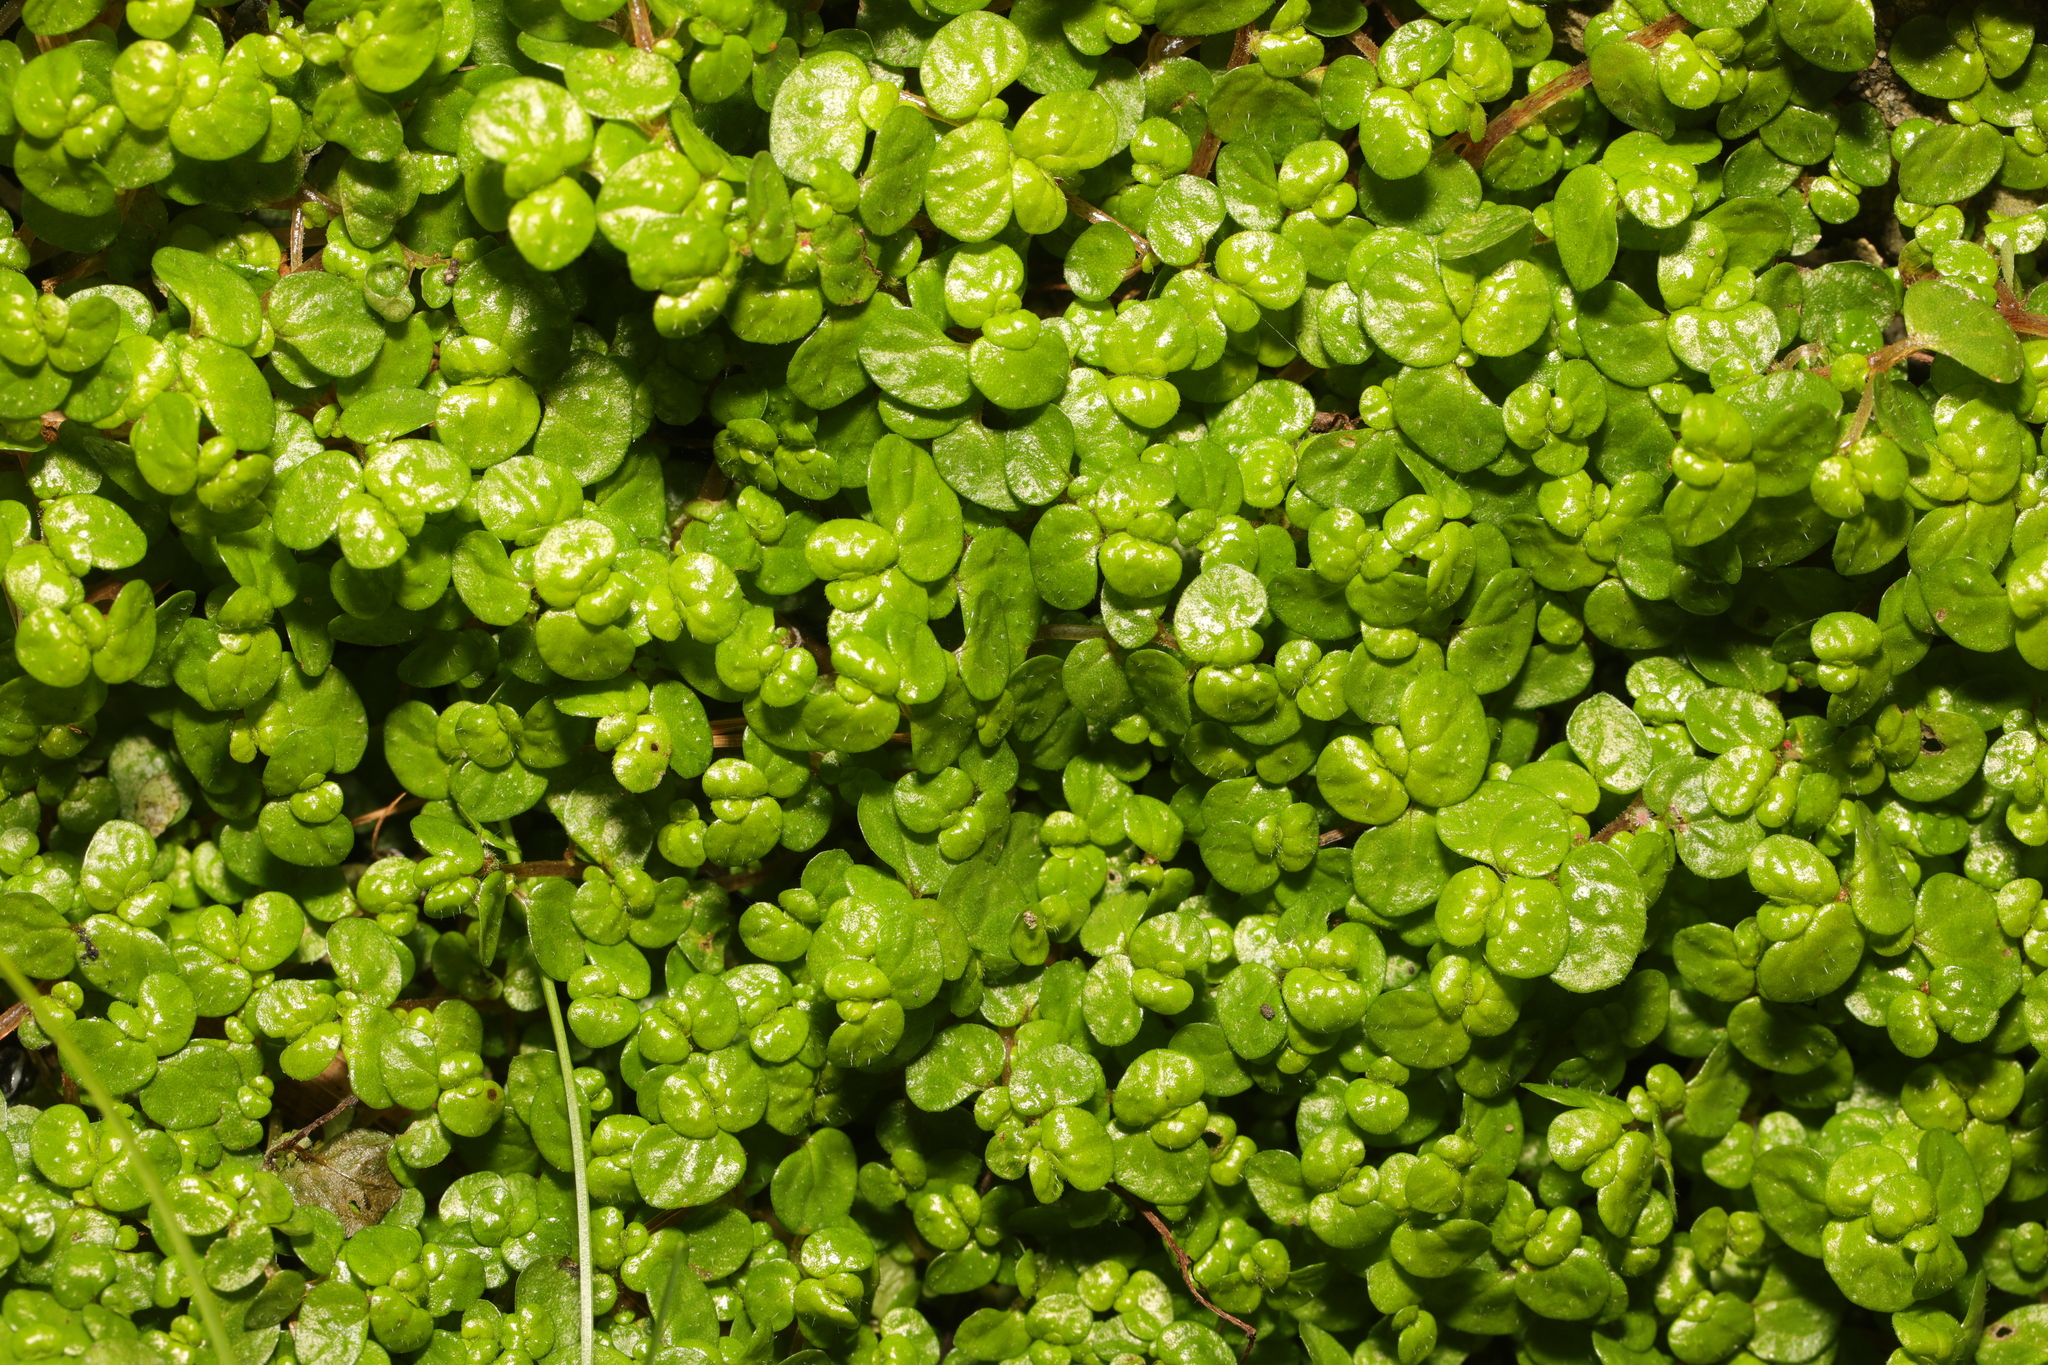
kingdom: Plantae
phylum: Tracheophyta
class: Magnoliopsida
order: Rosales
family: Urticaceae
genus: Soleirolia
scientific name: Soleirolia soleirolii
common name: Mind-your-own-business
